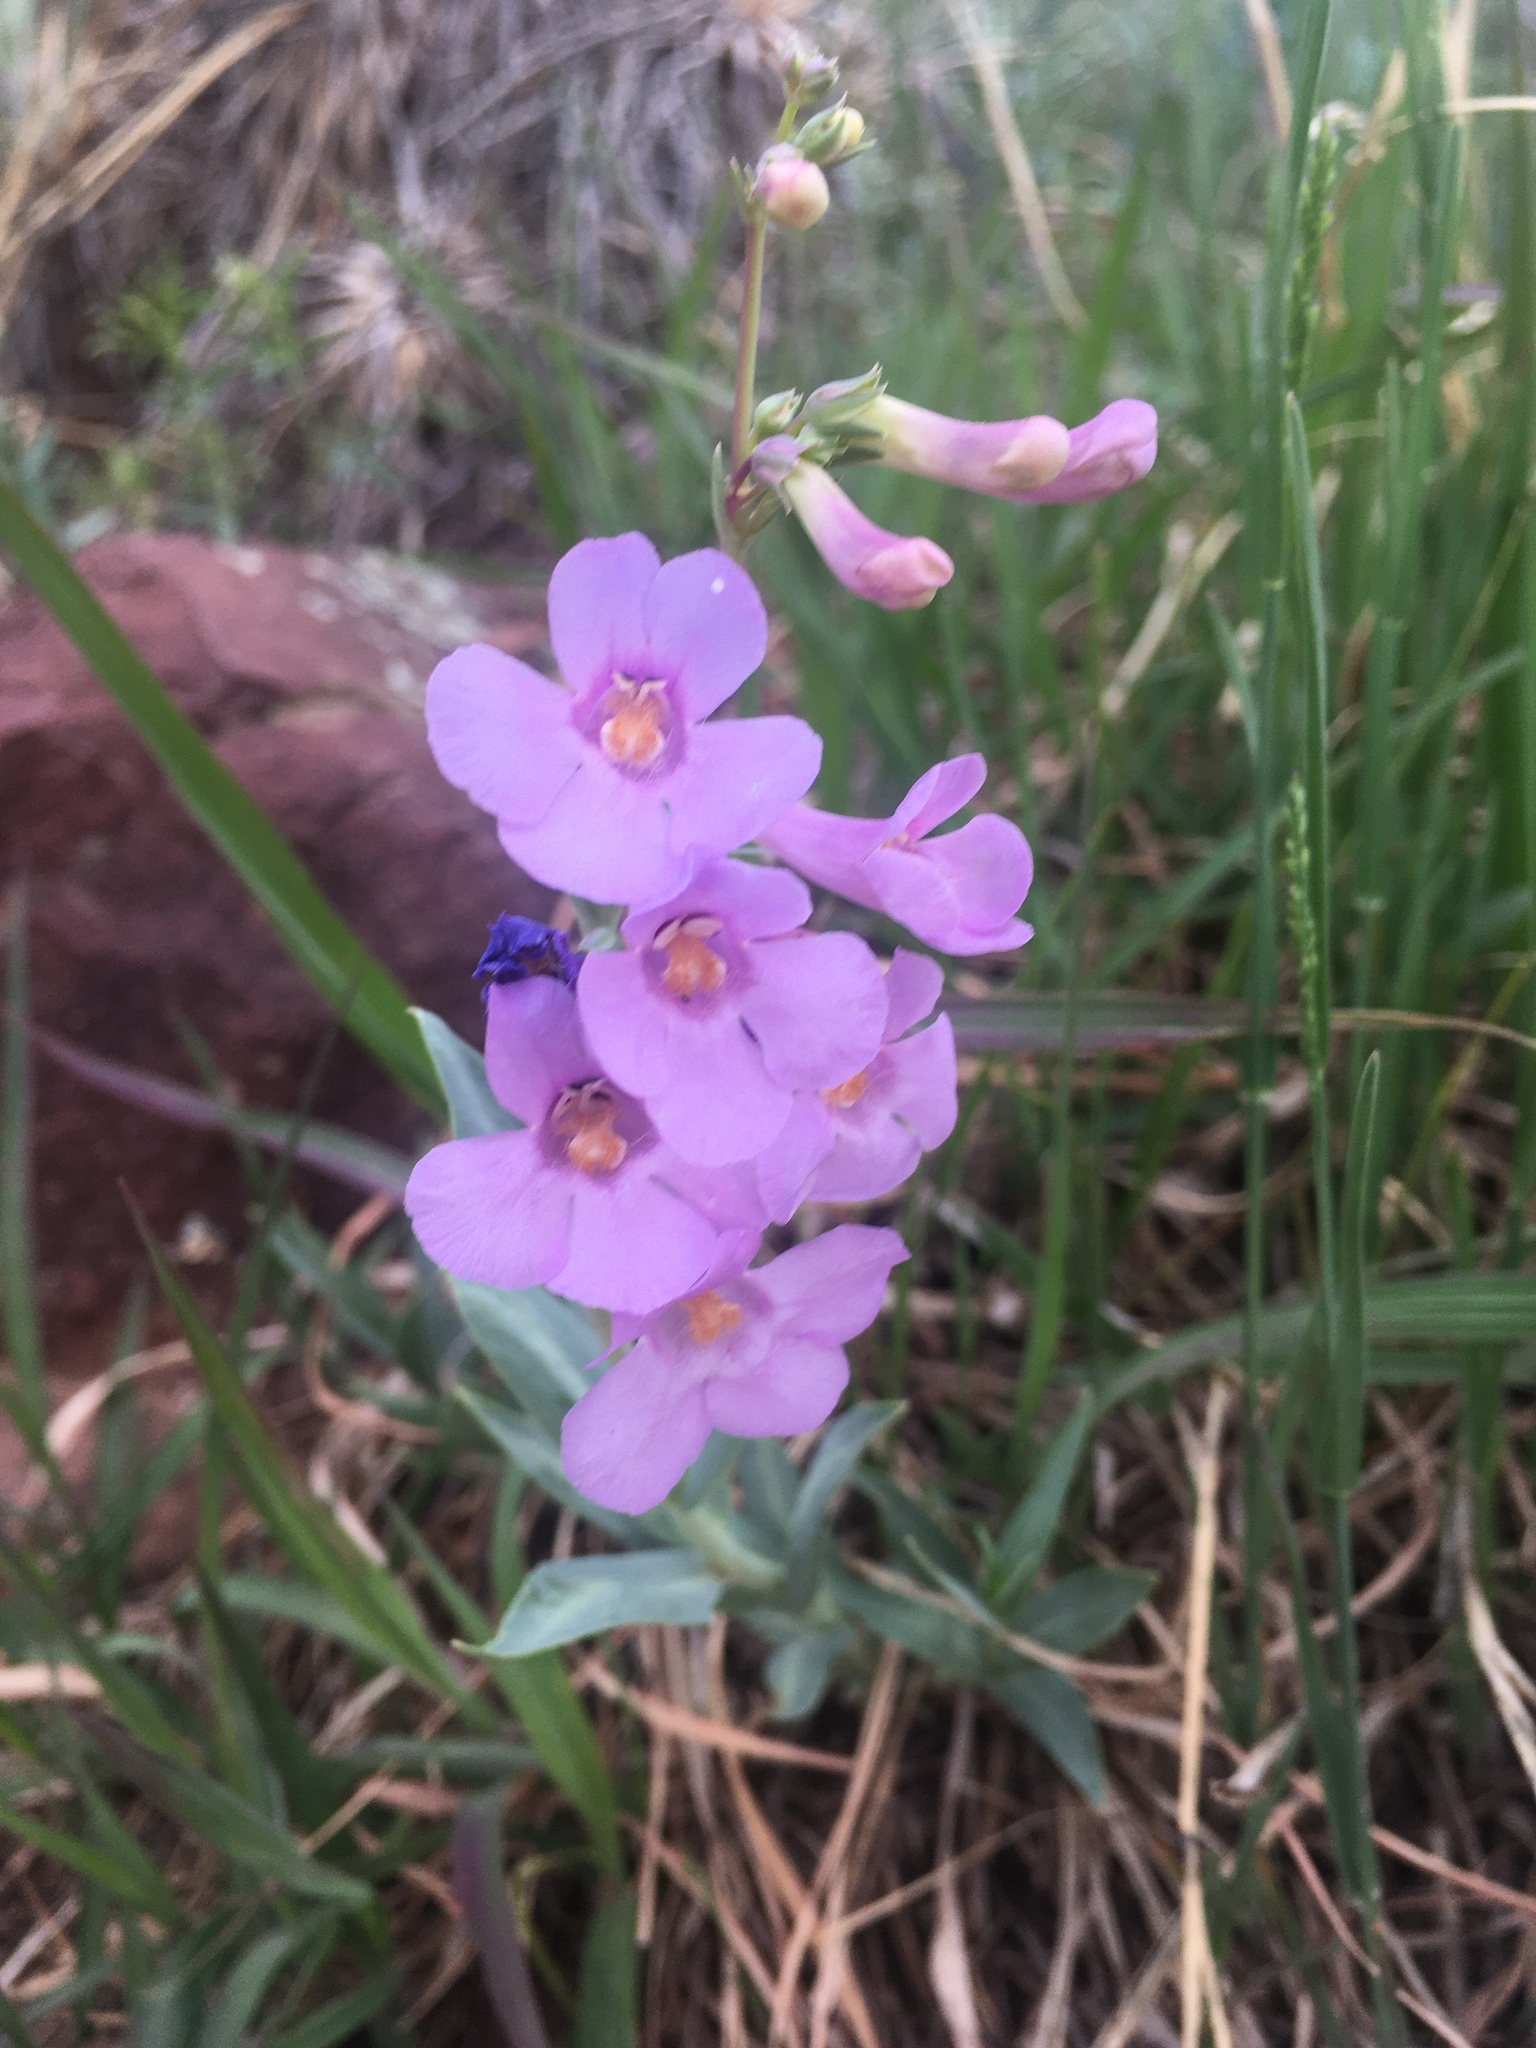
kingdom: Plantae
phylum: Tracheophyta
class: Magnoliopsida
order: Lamiales
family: Plantaginaceae
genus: Penstemon
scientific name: Penstemon secundiflorus
